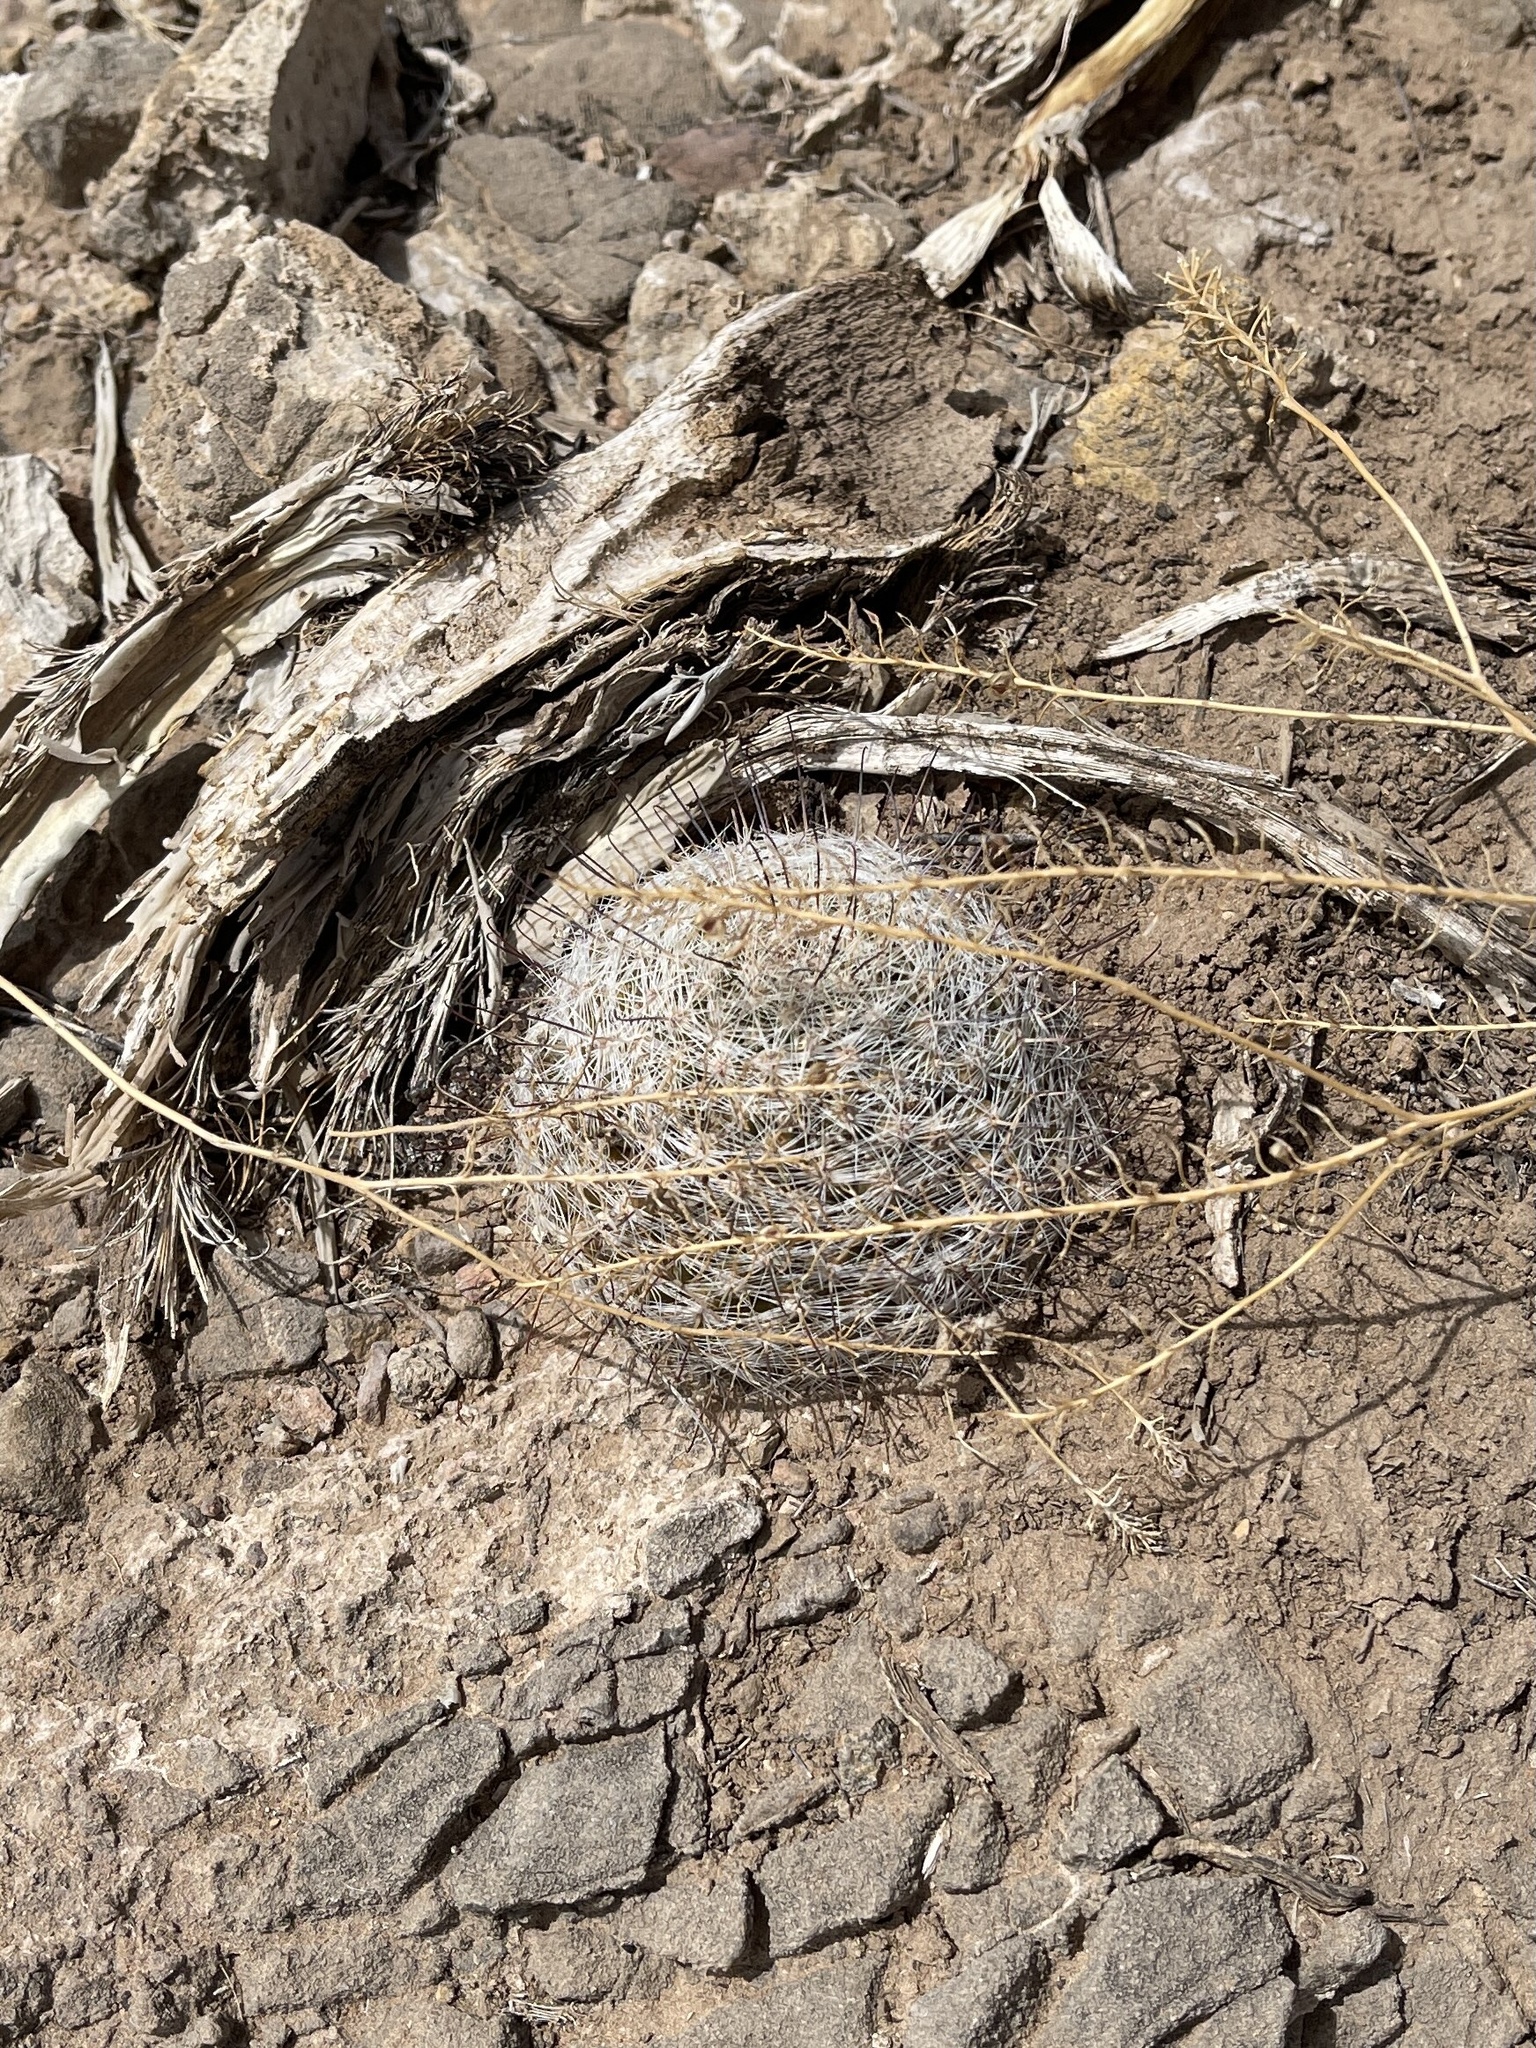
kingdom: Plantae
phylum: Tracheophyta
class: Magnoliopsida
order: Caryophyllales
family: Cactaceae
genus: Cochemiea
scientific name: Cochemiea grahamii
